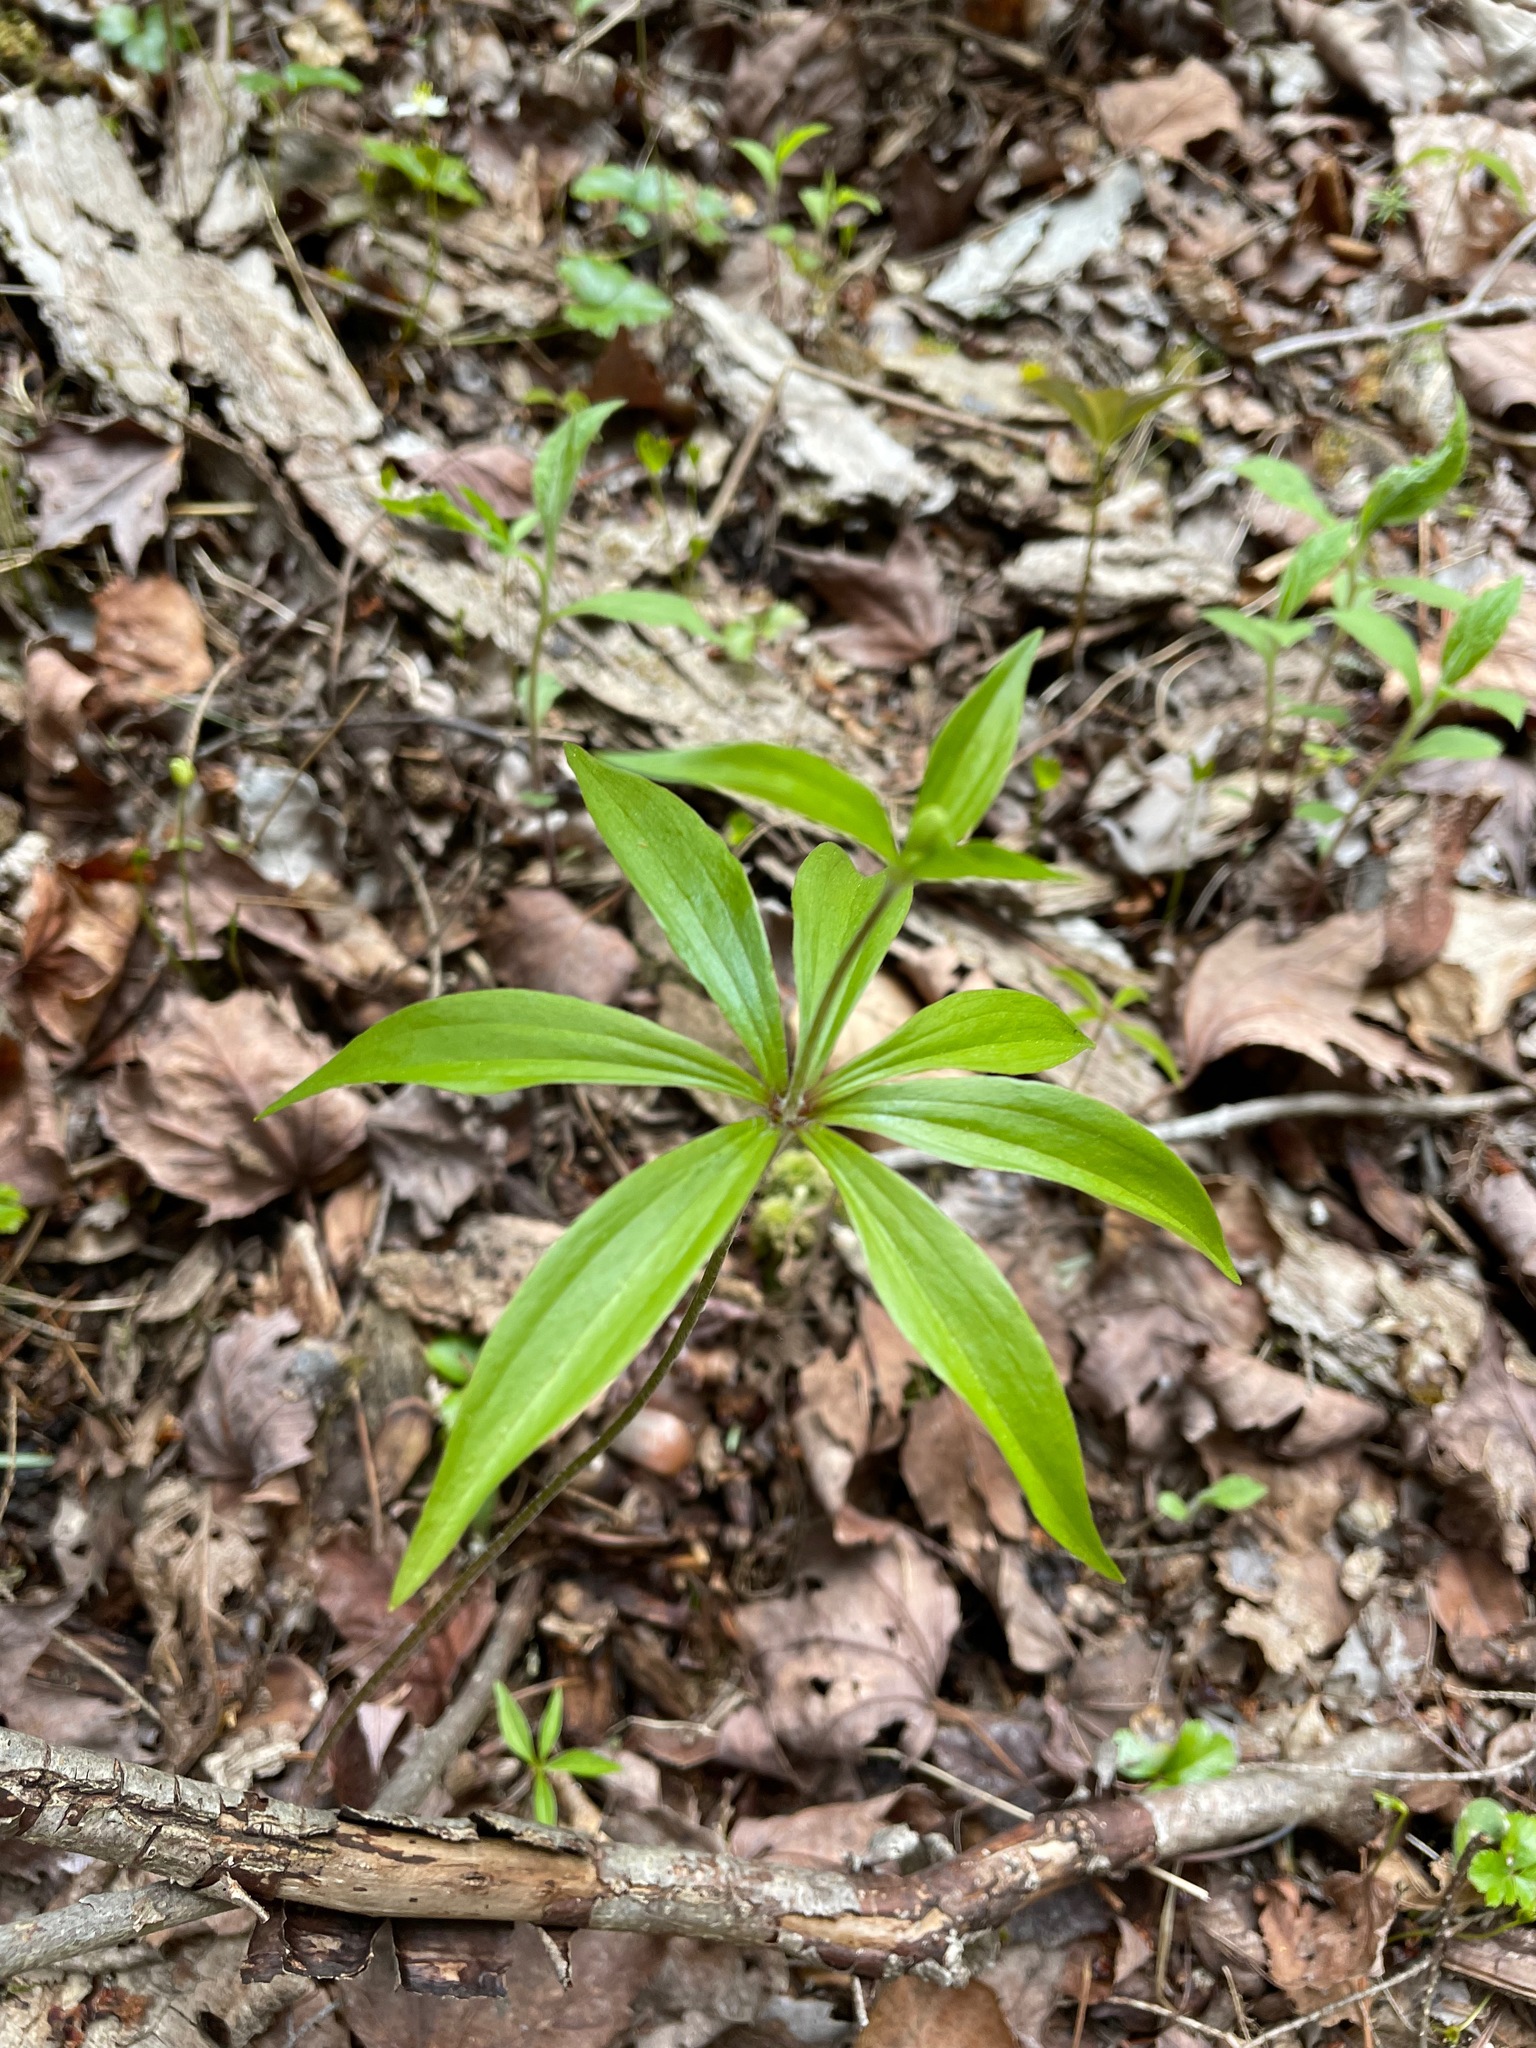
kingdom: Plantae
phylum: Tracheophyta
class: Liliopsida
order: Liliales
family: Liliaceae
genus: Medeola
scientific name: Medeola virginiana
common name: Indian cucumber-root
